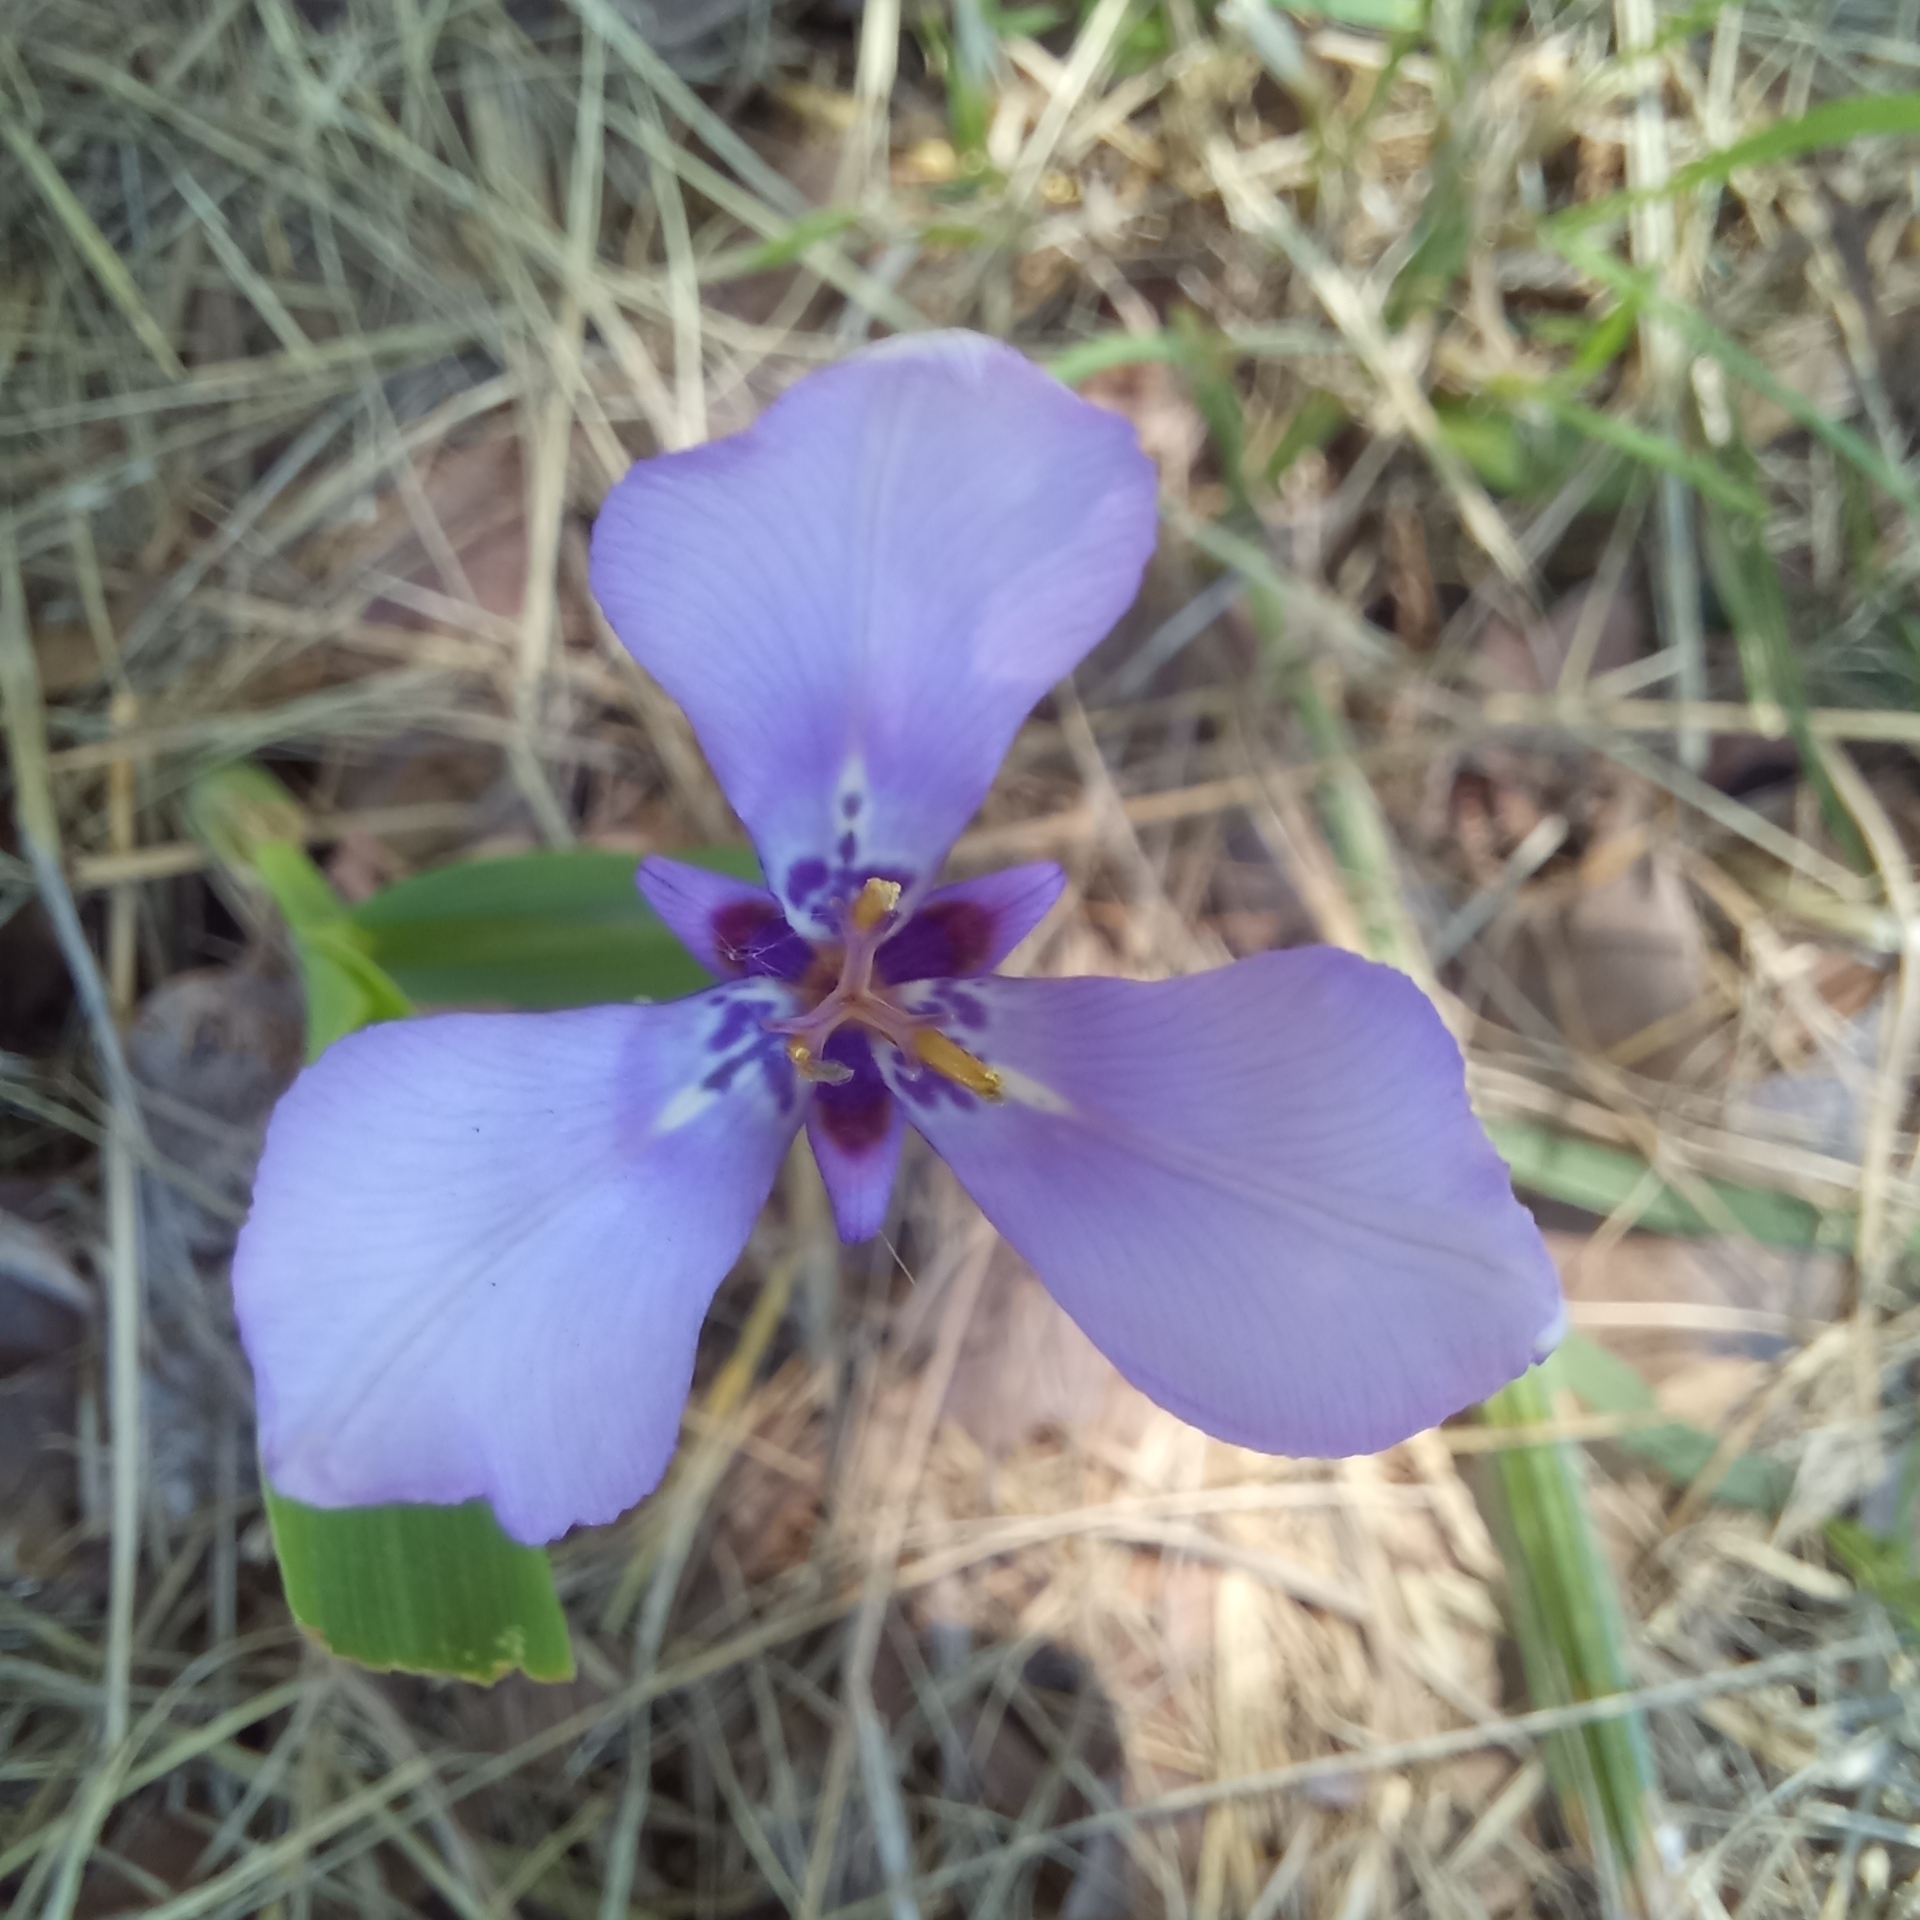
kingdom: Plantae
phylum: Tracheophyta
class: Liliopsida
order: Asparagales
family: Iridaceae
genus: Herbertia
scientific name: Herbertia lahue
